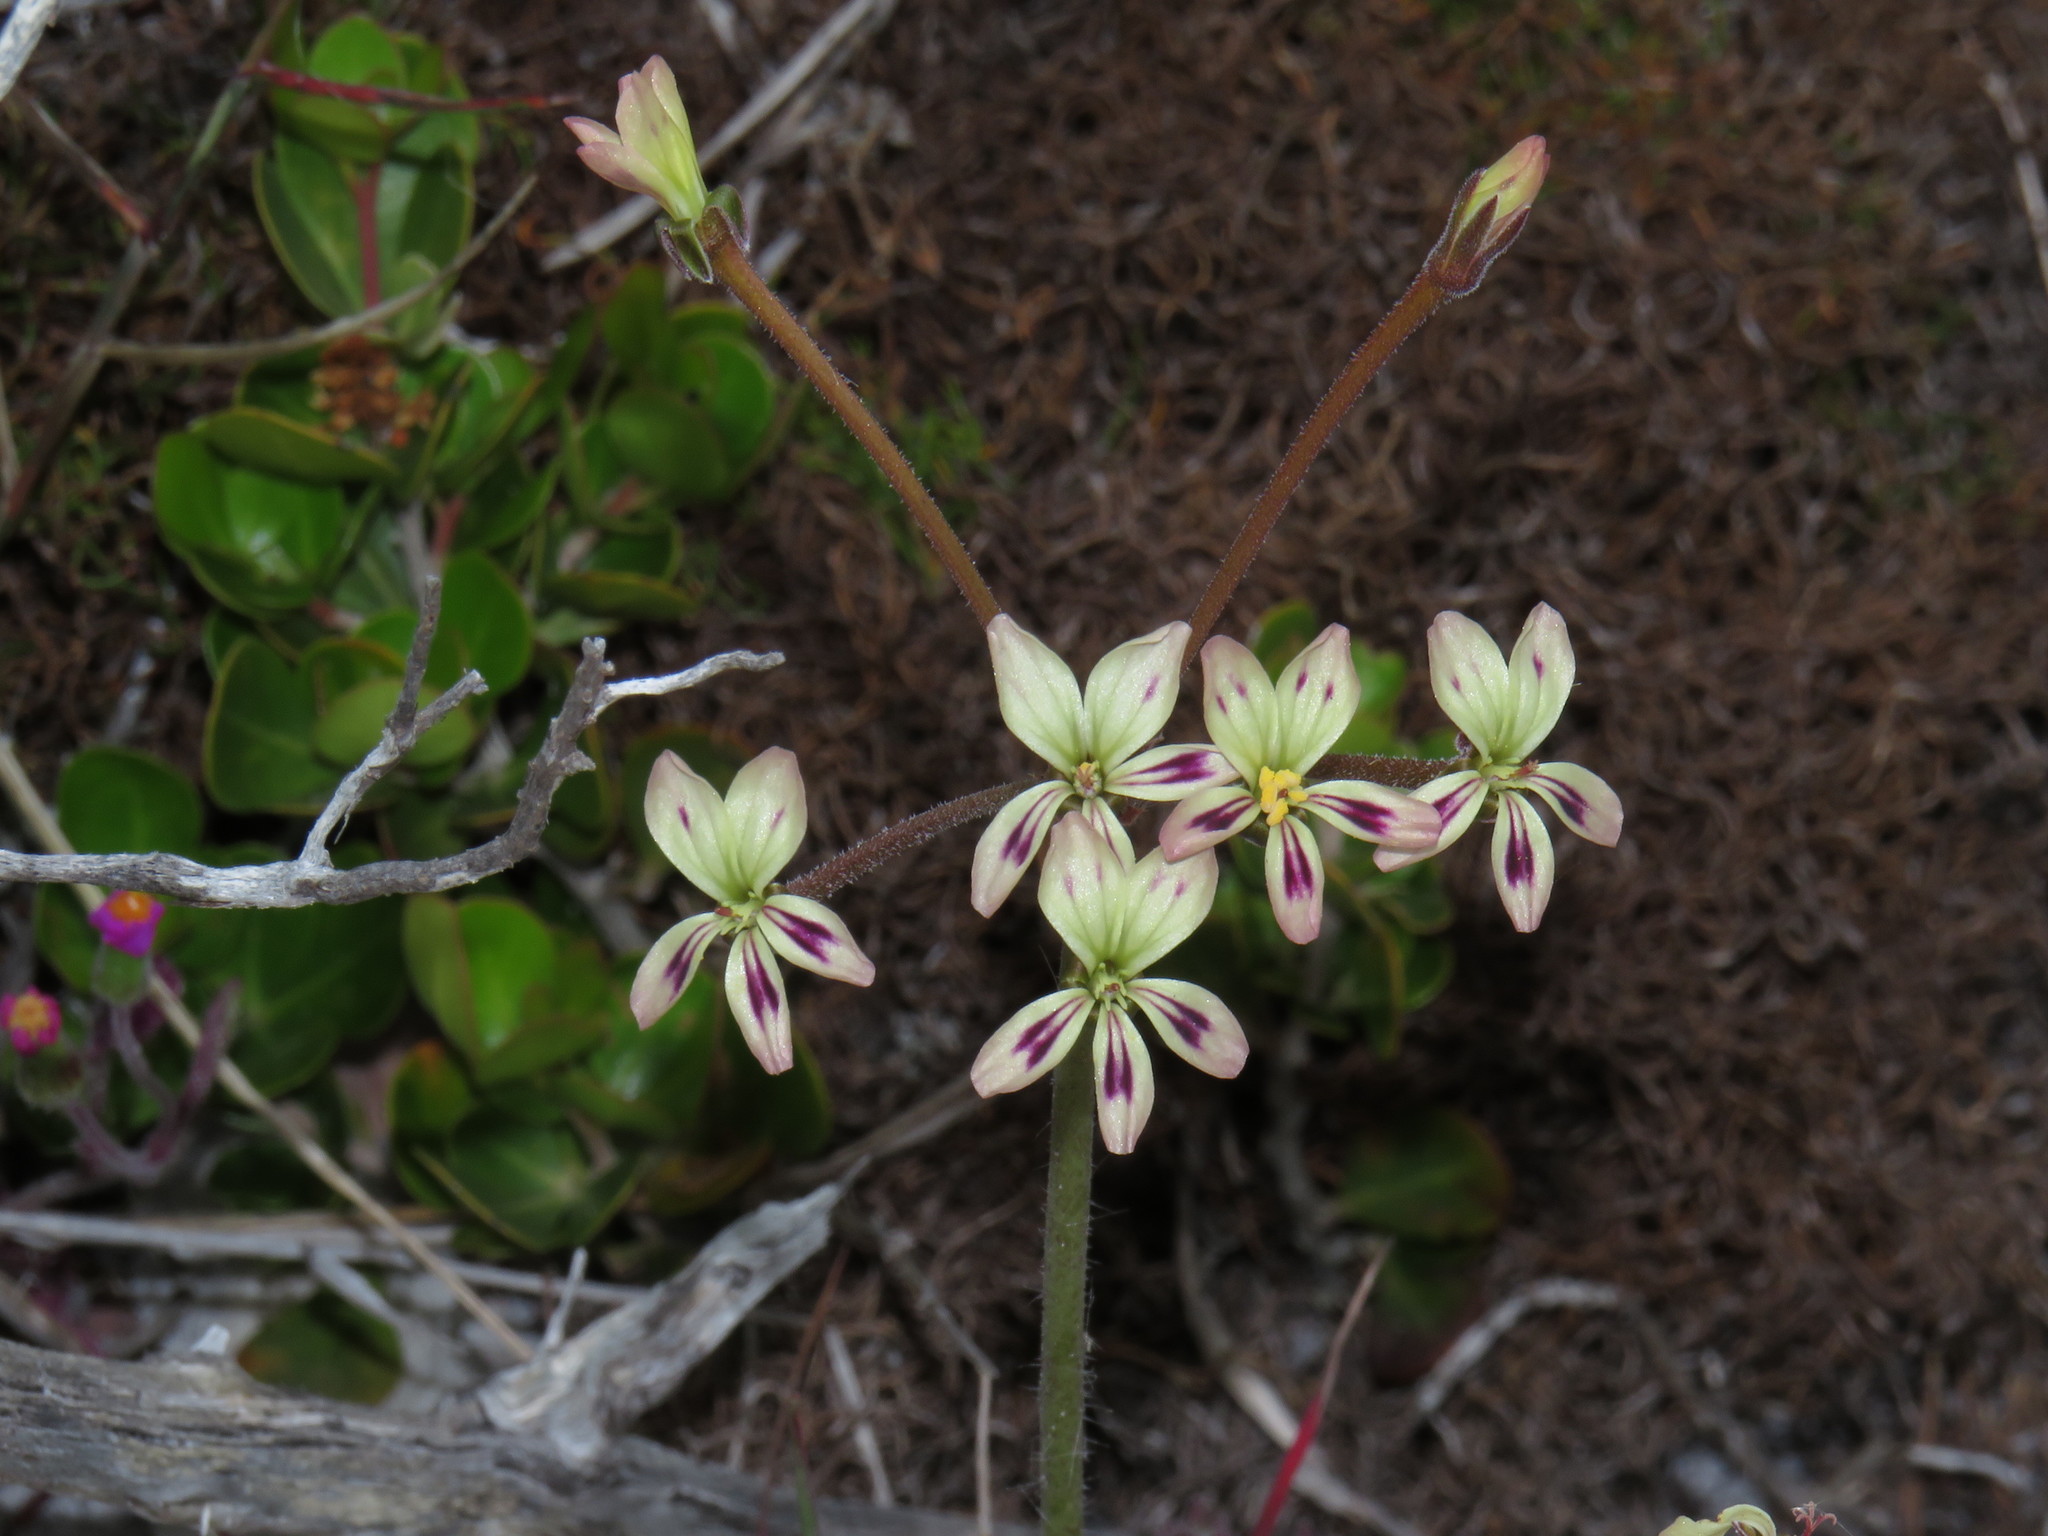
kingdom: Plantae
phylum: Tracheophyta
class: Magnoliopsida
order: Geraniales
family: Geraniaceae
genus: Pelargonium
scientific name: Pelargonium triste
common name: Night-scent pelargonium
